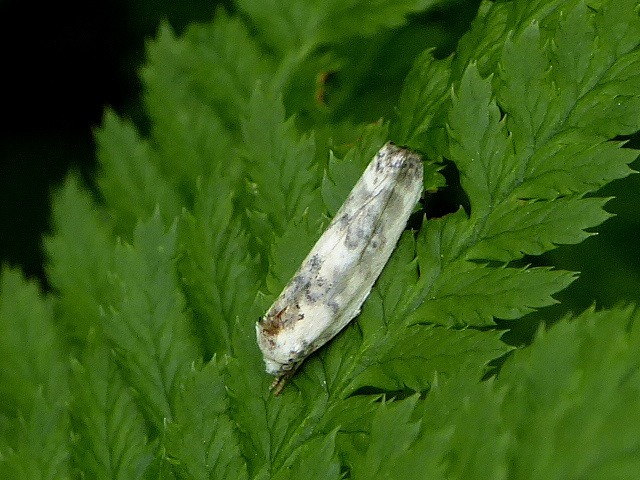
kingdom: Animalia
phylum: Arthropoda
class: Insecta
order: Lepidoptera
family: Depressariidae
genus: Antaeotricha
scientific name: Antaeotricha leucillana
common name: Pale gray bird-dropping moth
